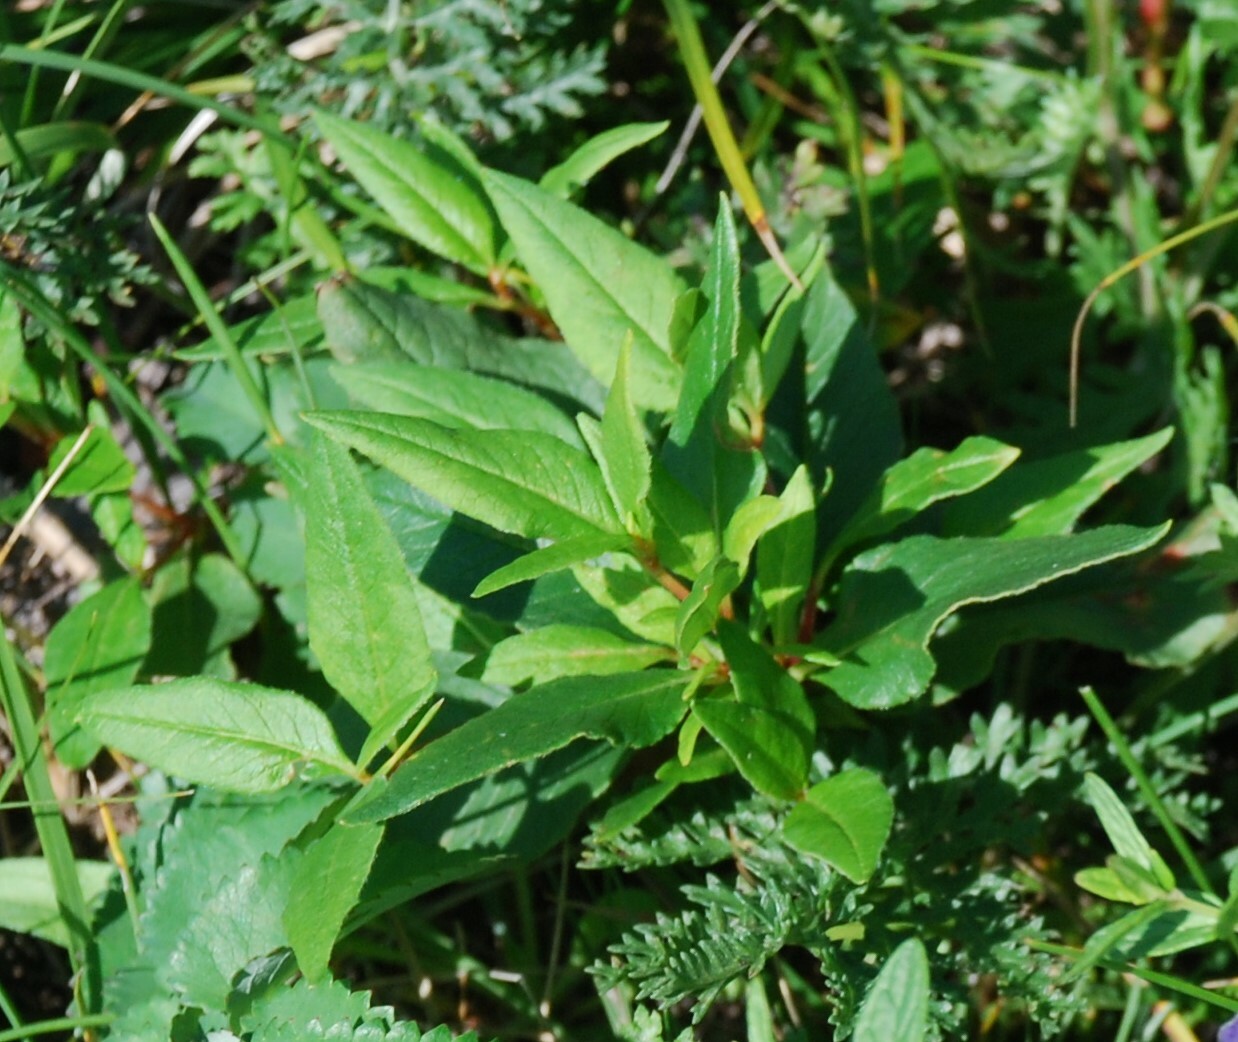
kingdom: Plantae
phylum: Tracheophyta
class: Magnoliopsida
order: Caryophyllales
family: Polygonaceae
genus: Koenigia
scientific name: Koenigia alpina
